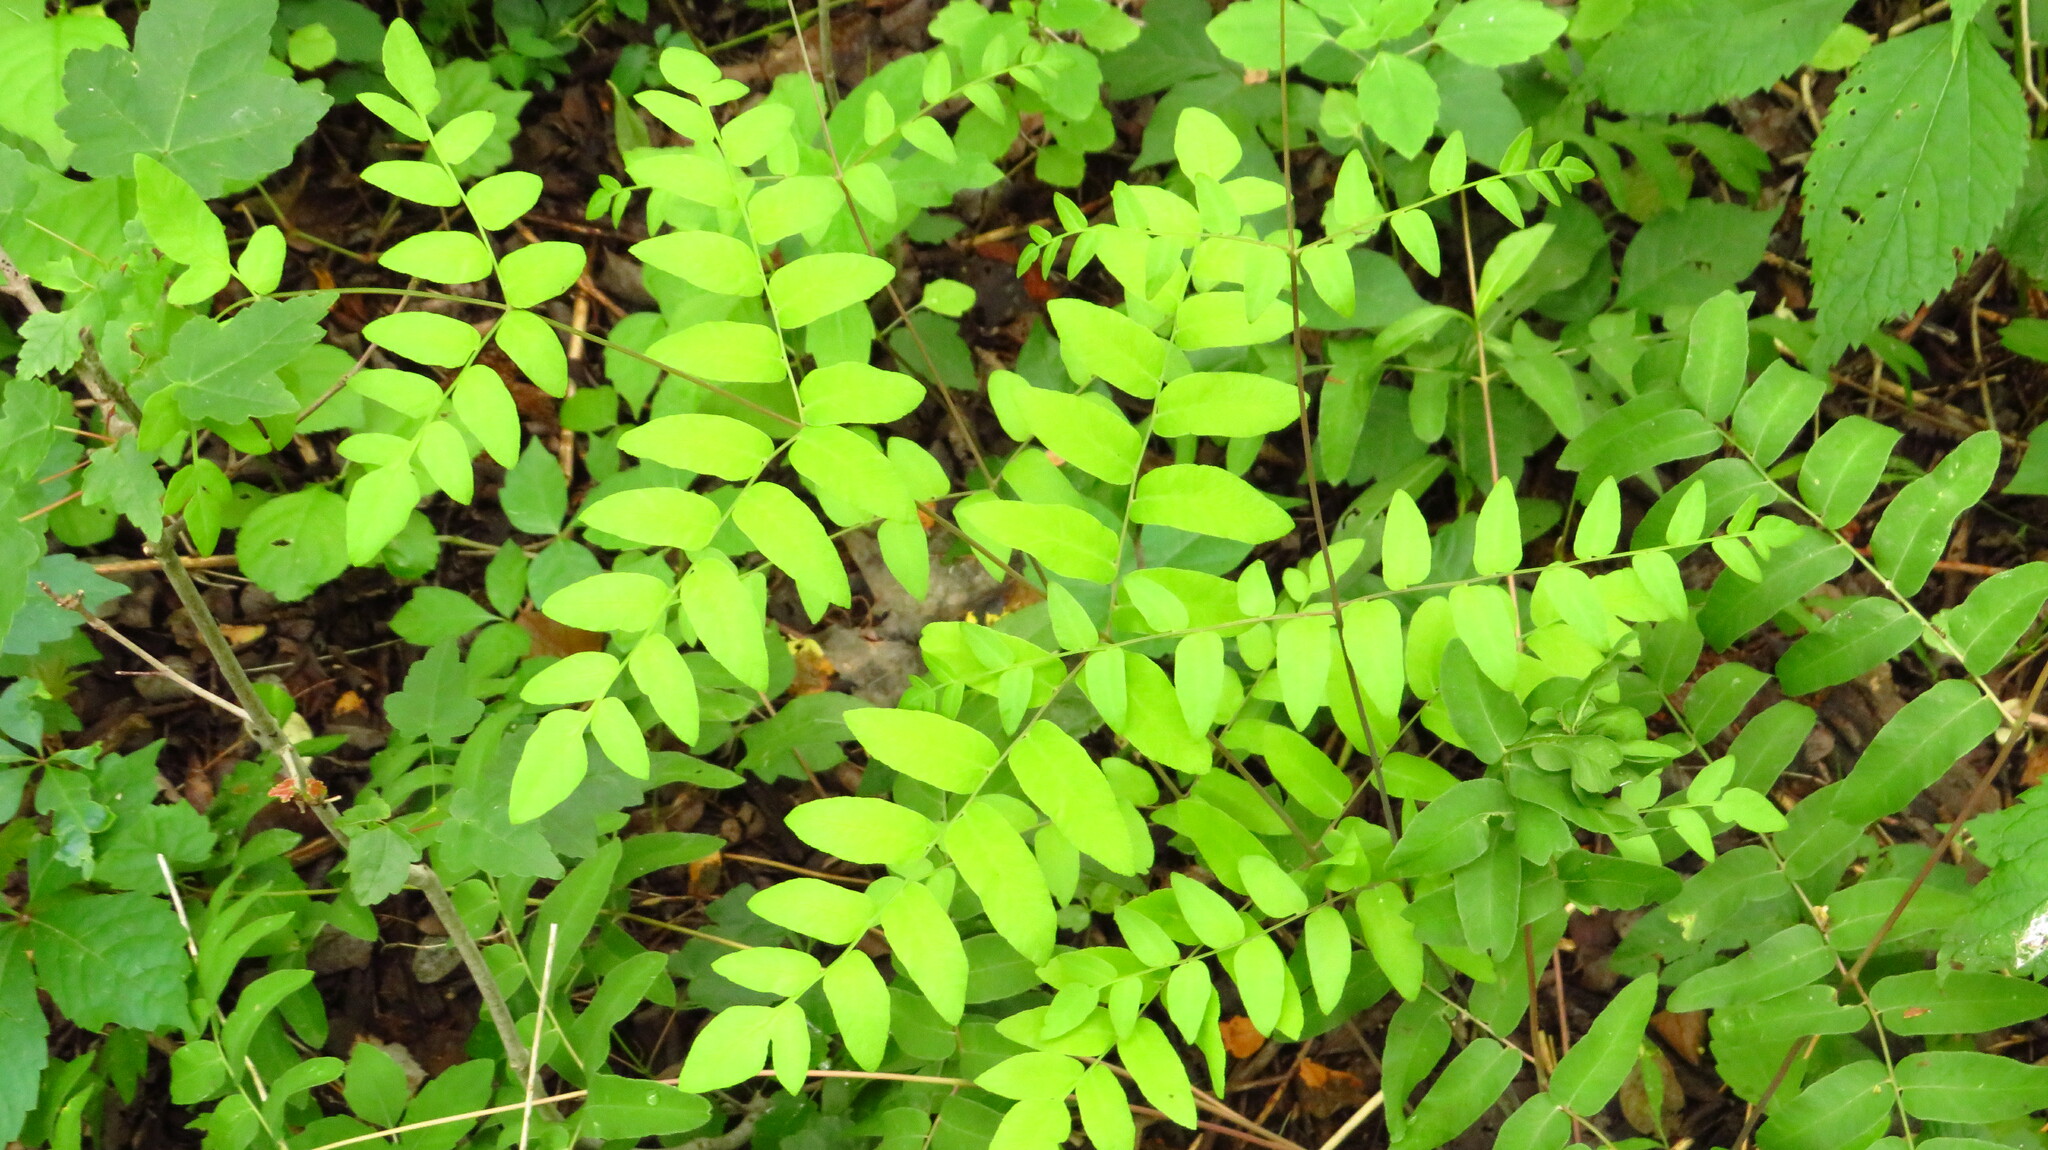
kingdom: Plantae
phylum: Tracheophyta
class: Polypodiopsida
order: Osmundales
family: Osmundaceae
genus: Osmunda
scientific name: Osmunda spectabilis
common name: American royal fern
